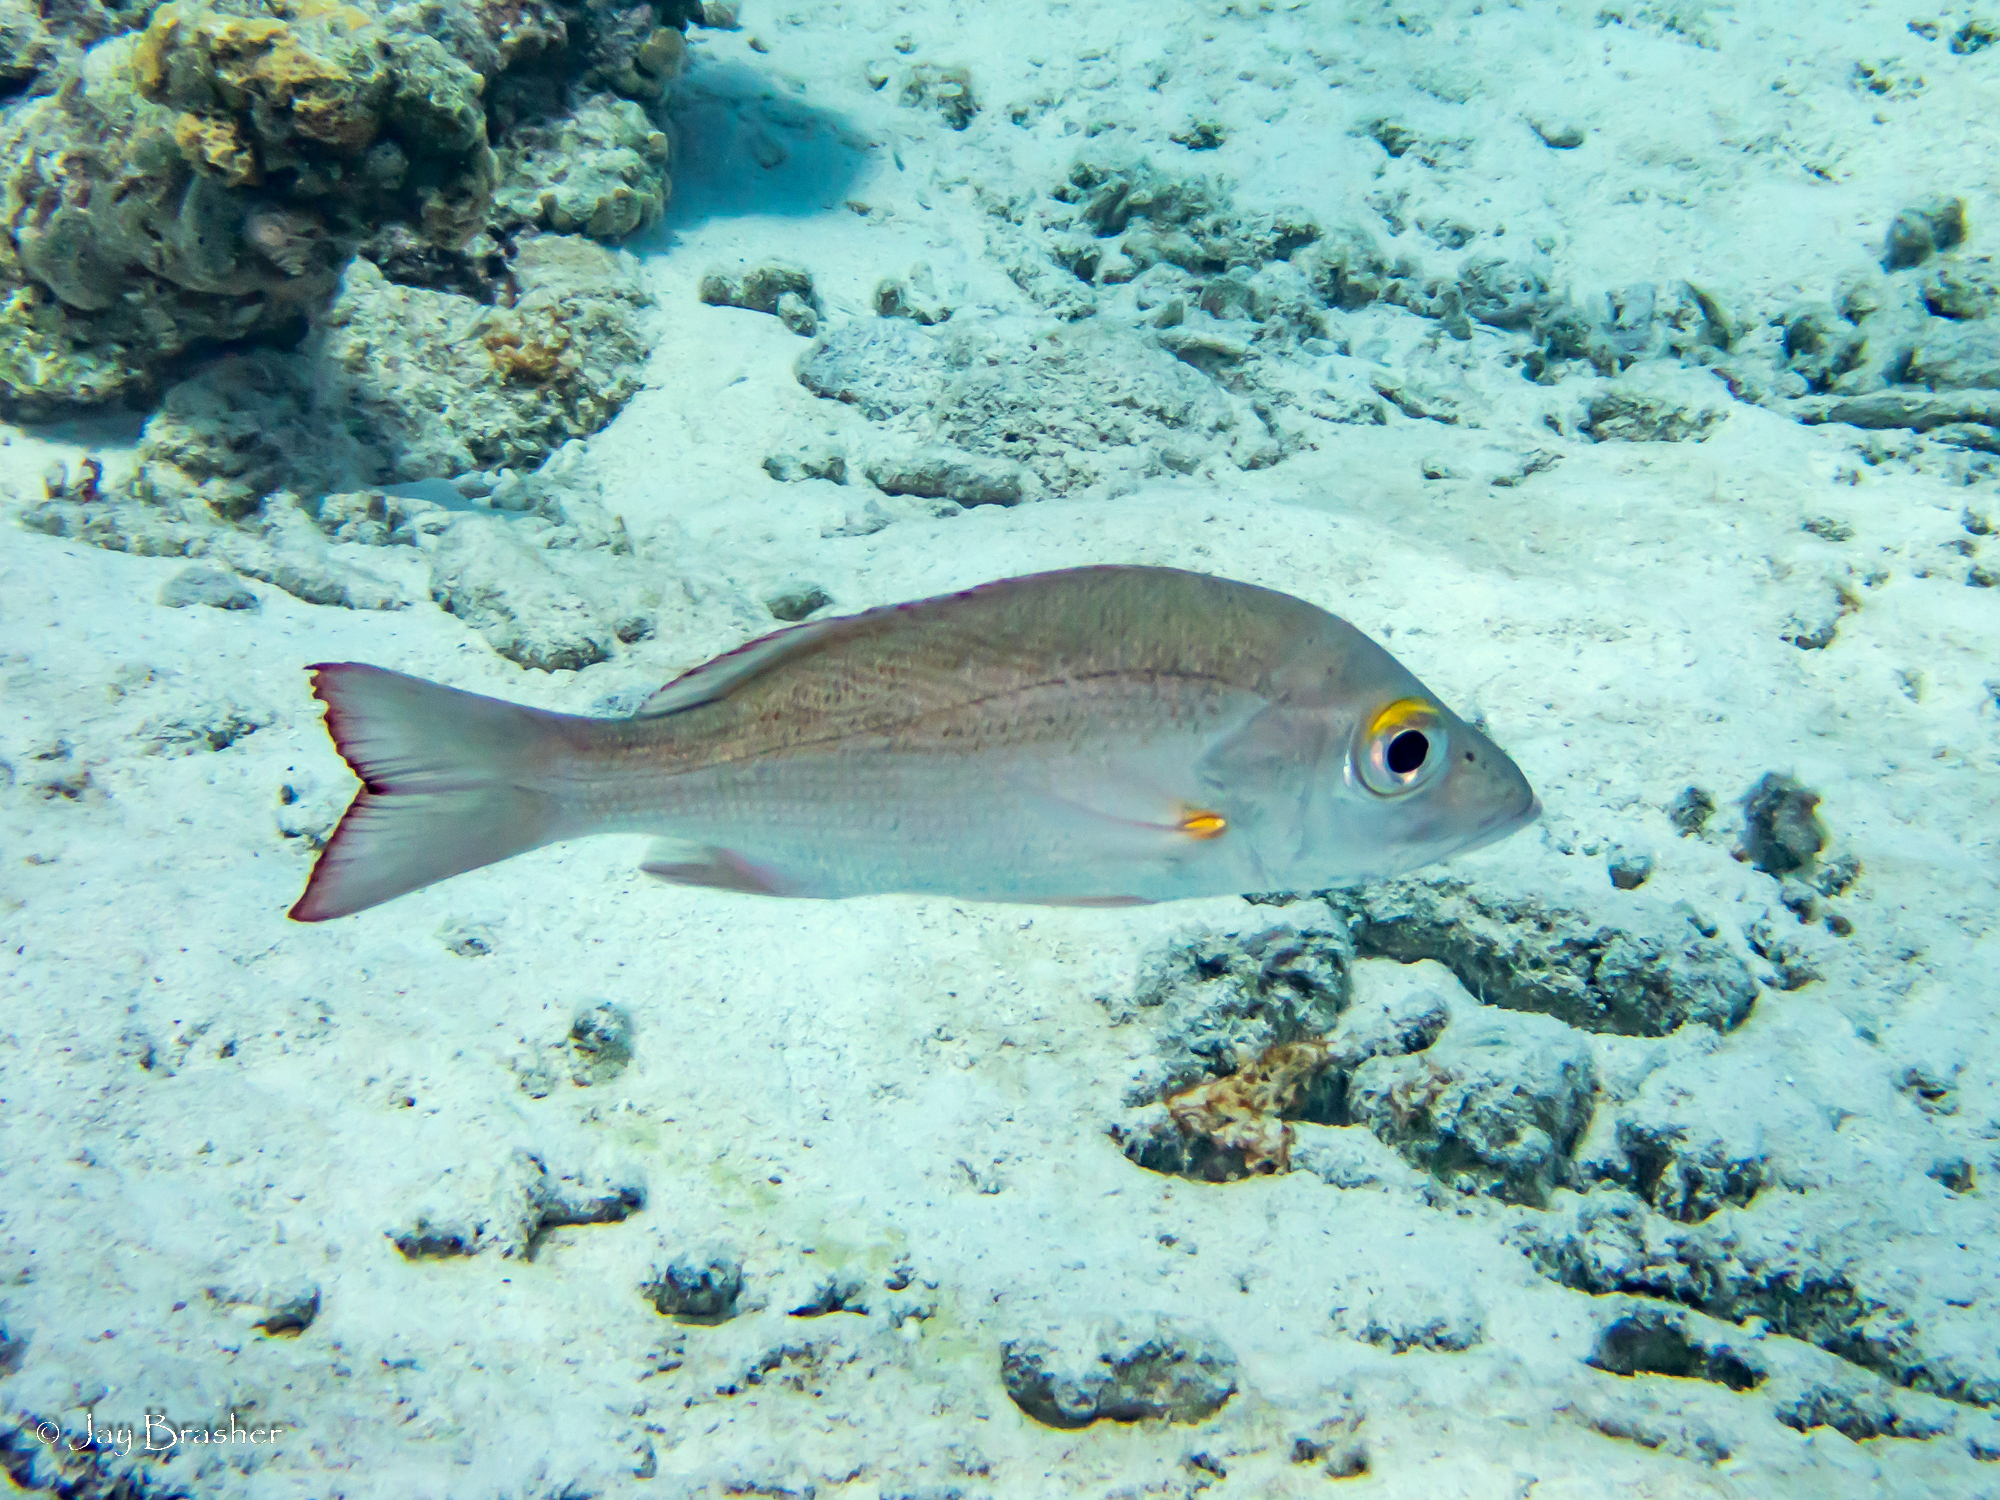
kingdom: Animalia
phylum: Chordata
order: Perciformes
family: Lutjanidae
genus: Lutjanus
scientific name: Lutjanus mahogoni
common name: Spot snapper
